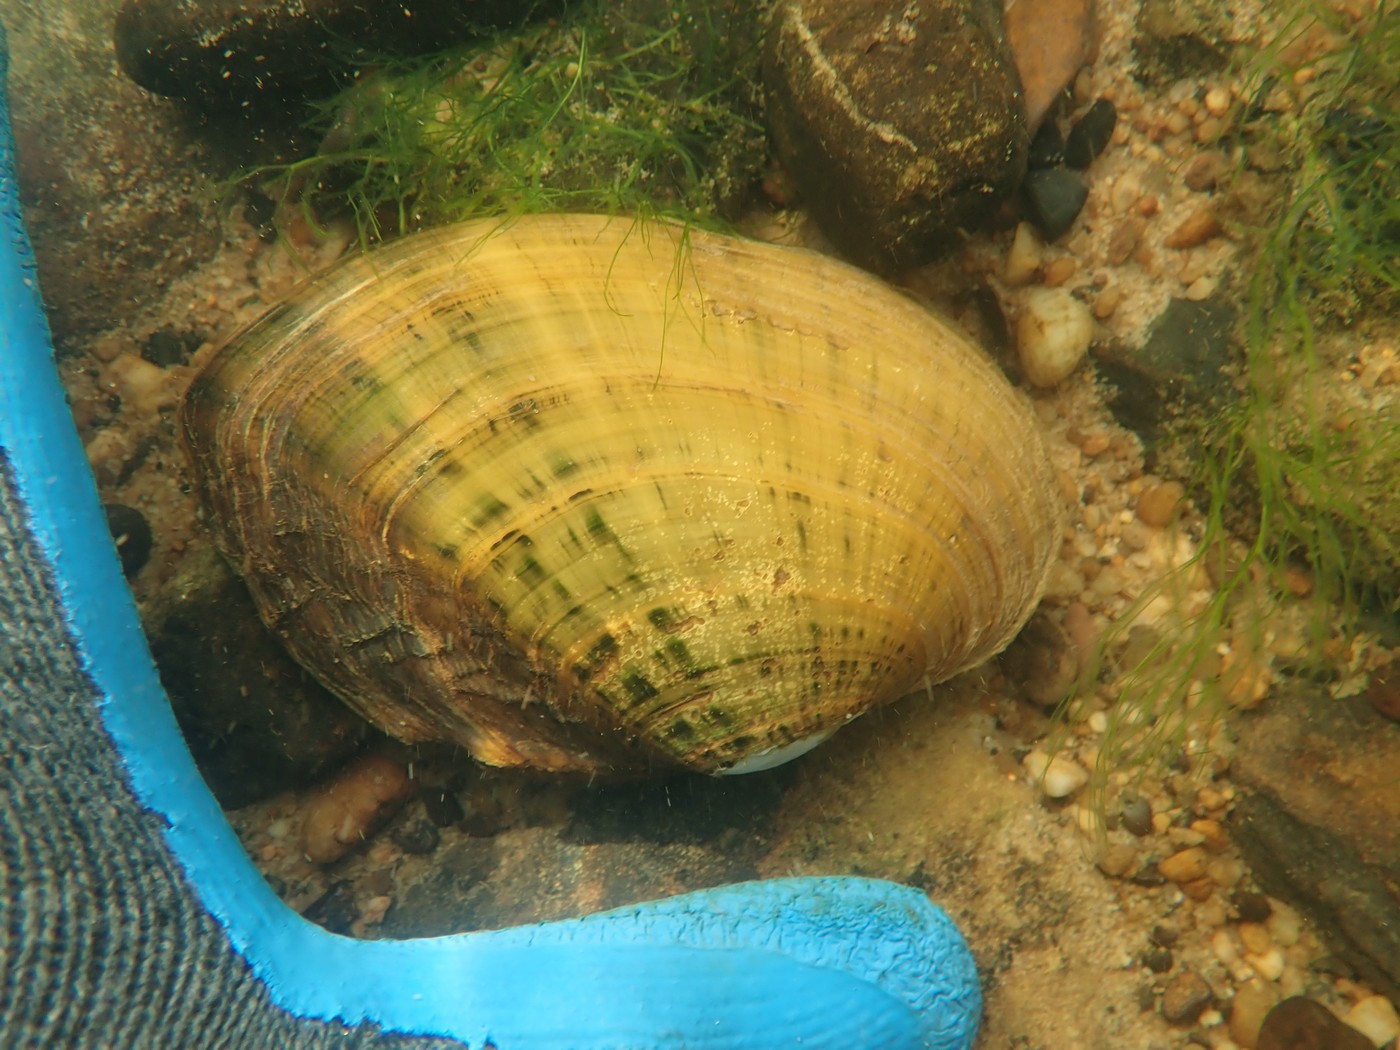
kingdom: Animalia
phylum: Mollusca
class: Bivalvia
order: Unionida
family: Unionidae
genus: Ortmanniana
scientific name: Ortmanniana pectorosa
